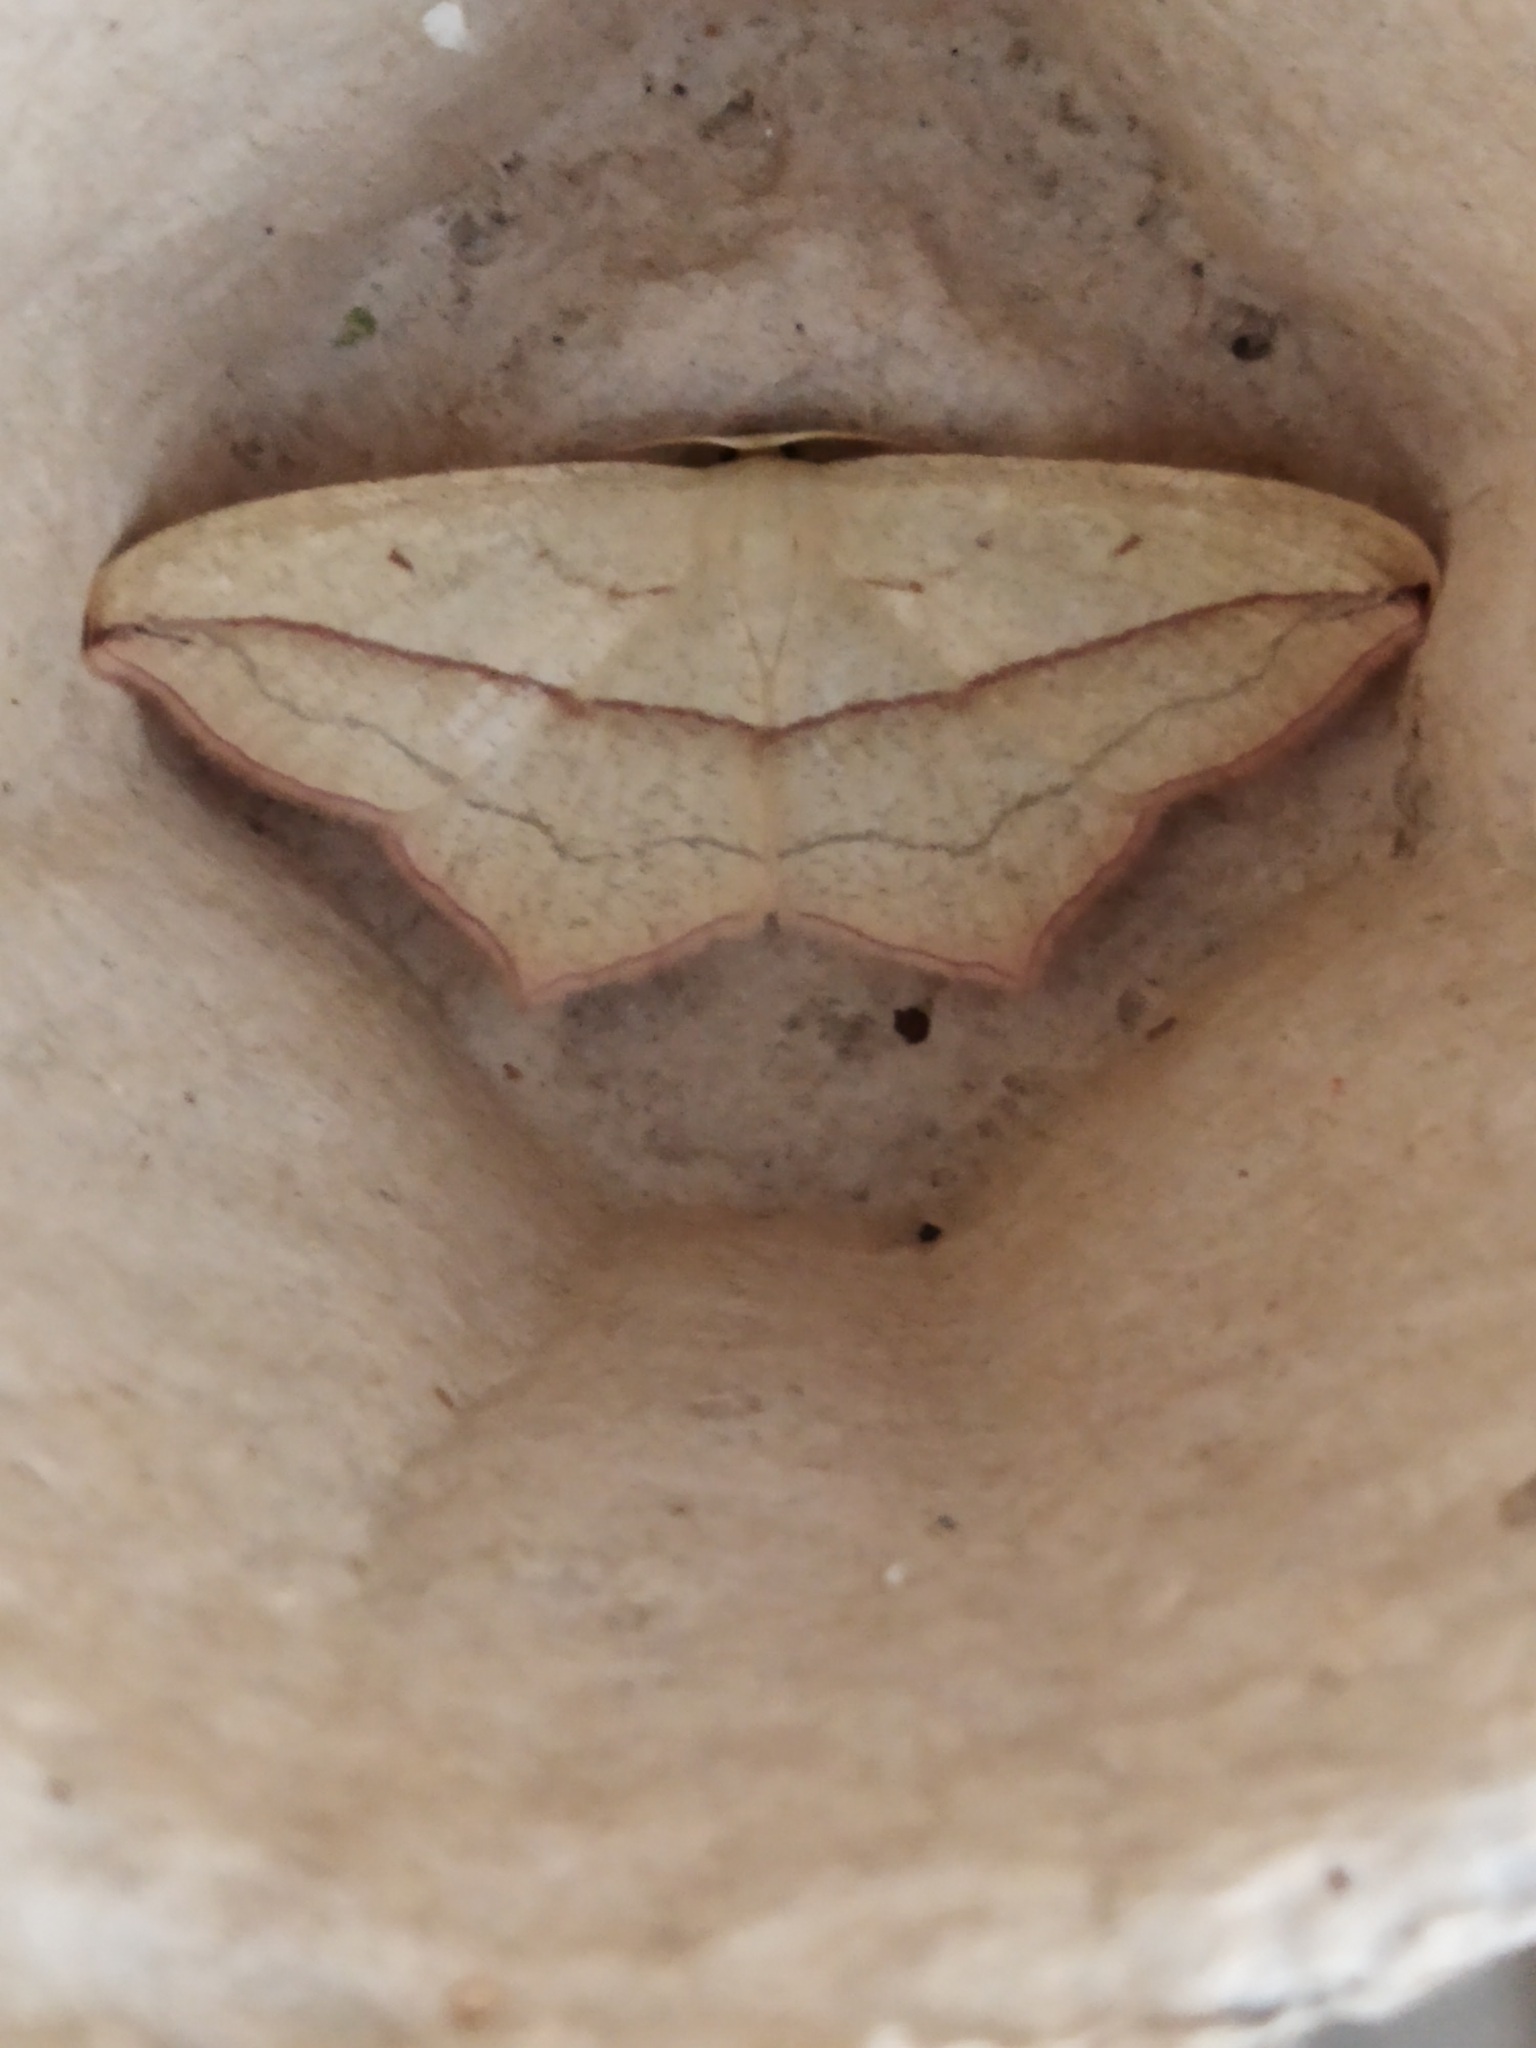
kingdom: Animalia
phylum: Arthropoda
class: Insecta
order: Lepidoptera
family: Geometridae
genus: Timandra
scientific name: Timandra comae
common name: Blood-vein
